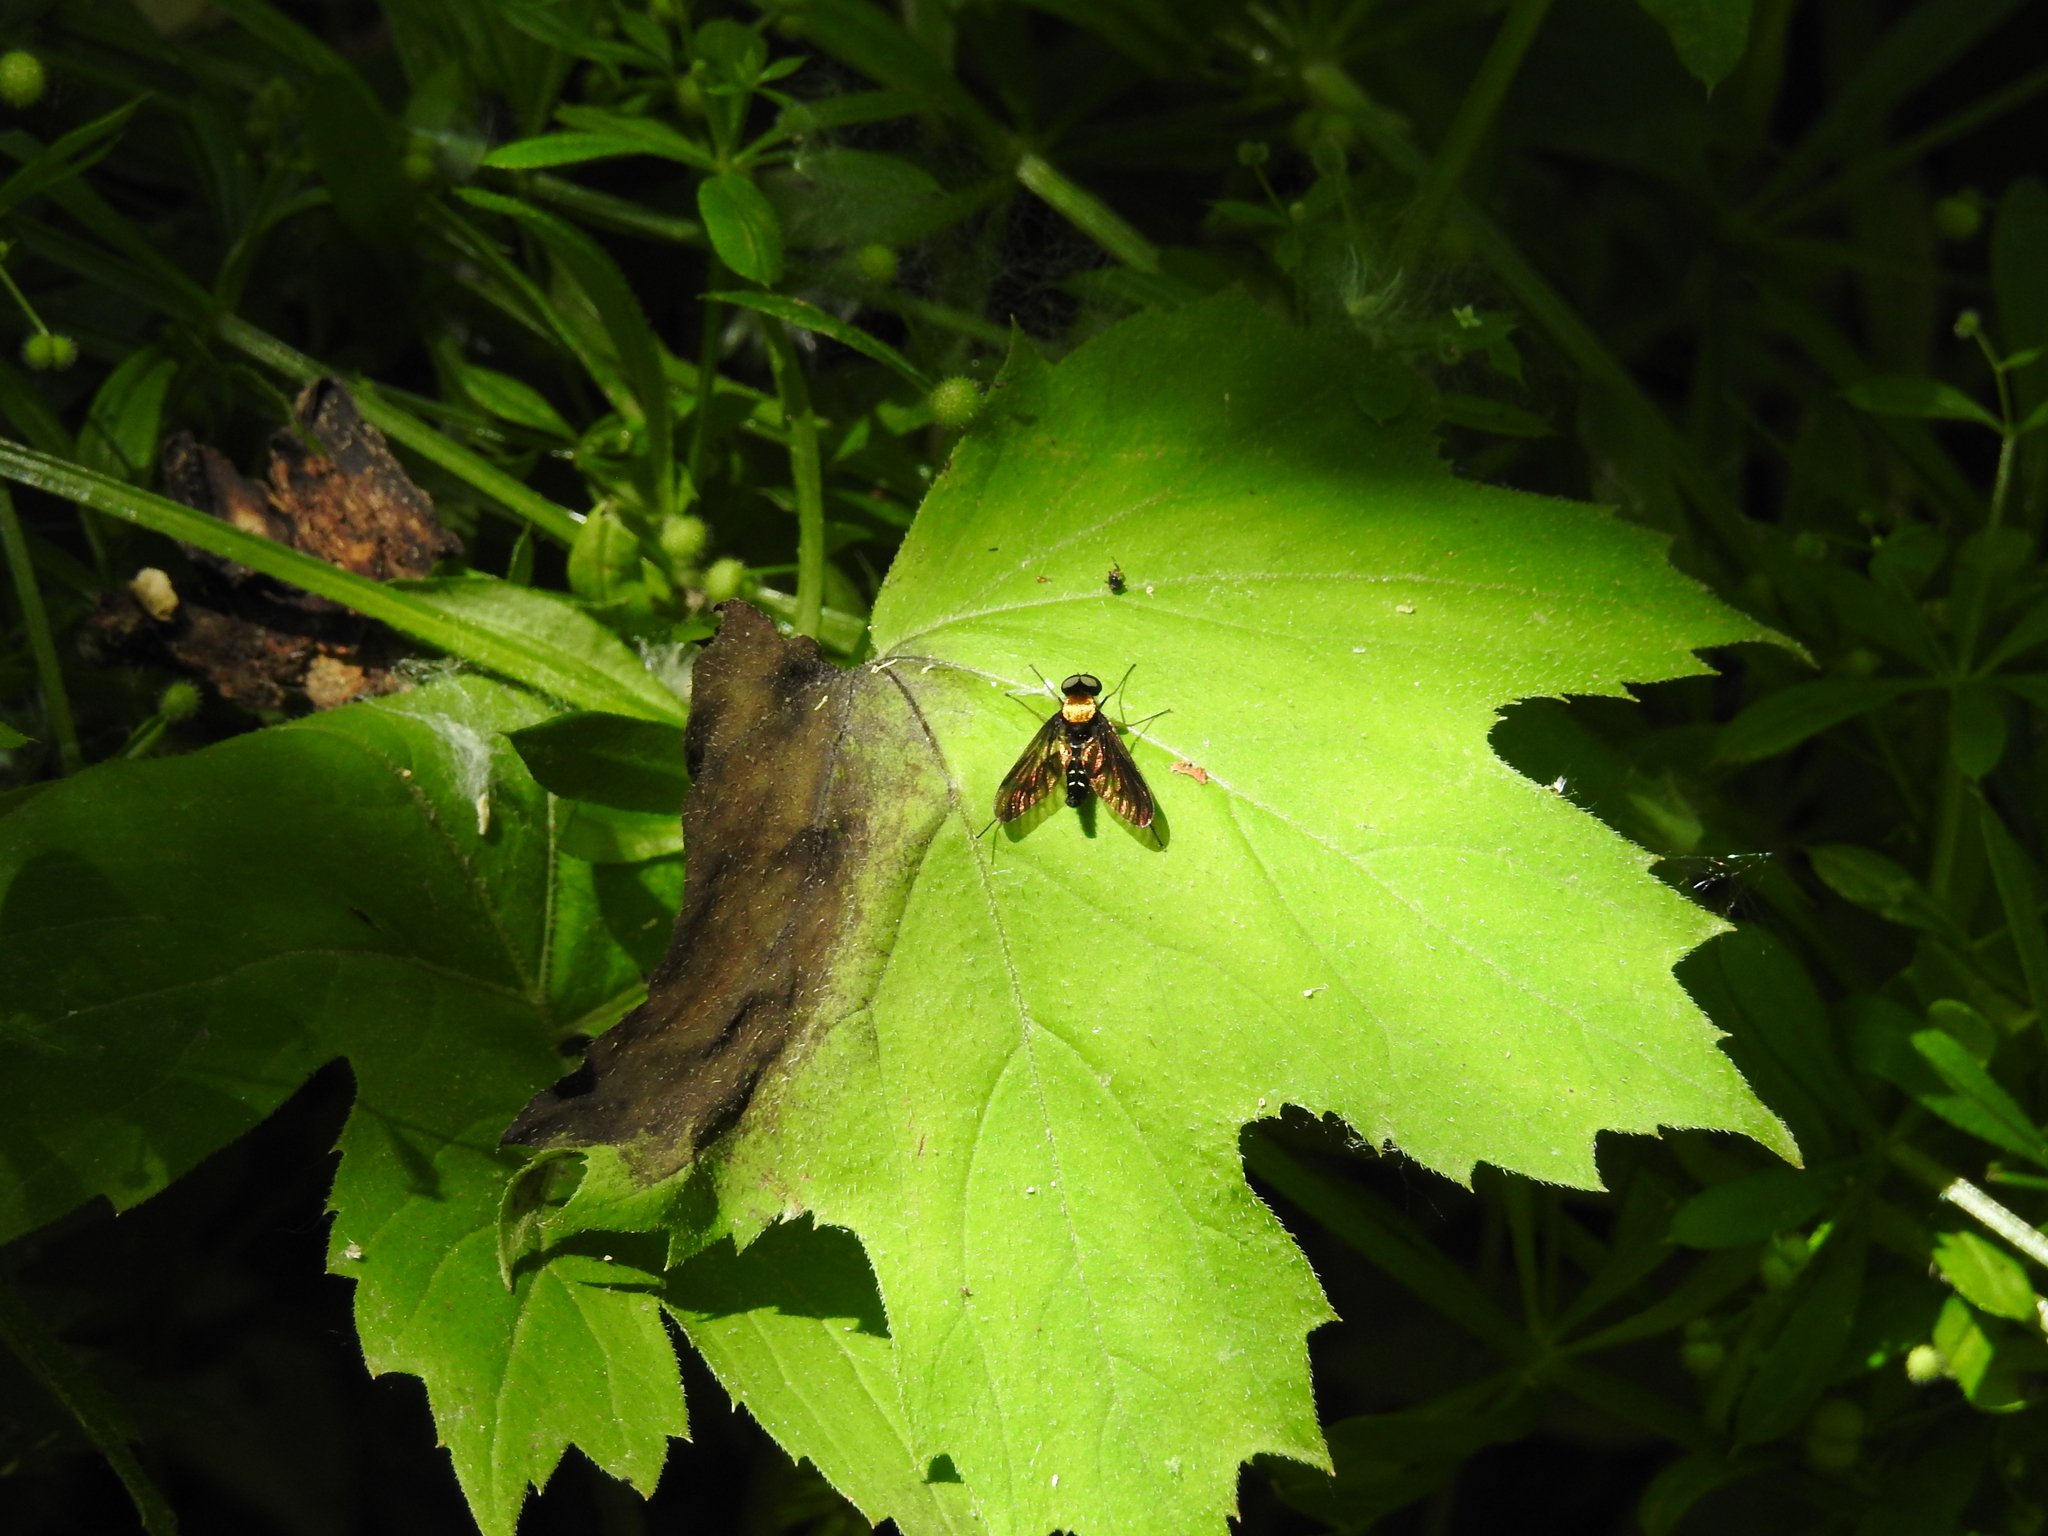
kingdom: Animalia
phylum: Arthropoda
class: Insecta
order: Diptera
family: Rhagionidae
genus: Chrysopilus
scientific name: Chrysopilus thoracicus
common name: Golden-backed snipe fly
